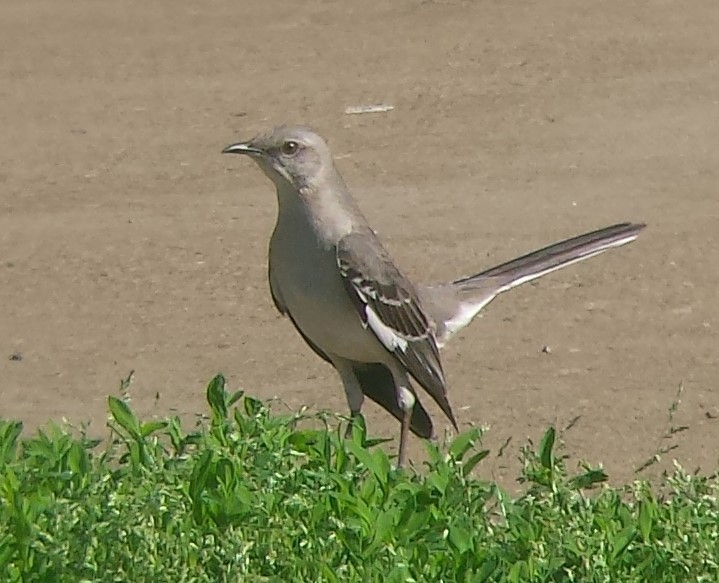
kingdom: Animalia
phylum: Chordata
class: Aves
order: Passeriformes
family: Mimidae
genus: Mimus
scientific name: Mimus polyglottos
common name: Northern mockingbird
